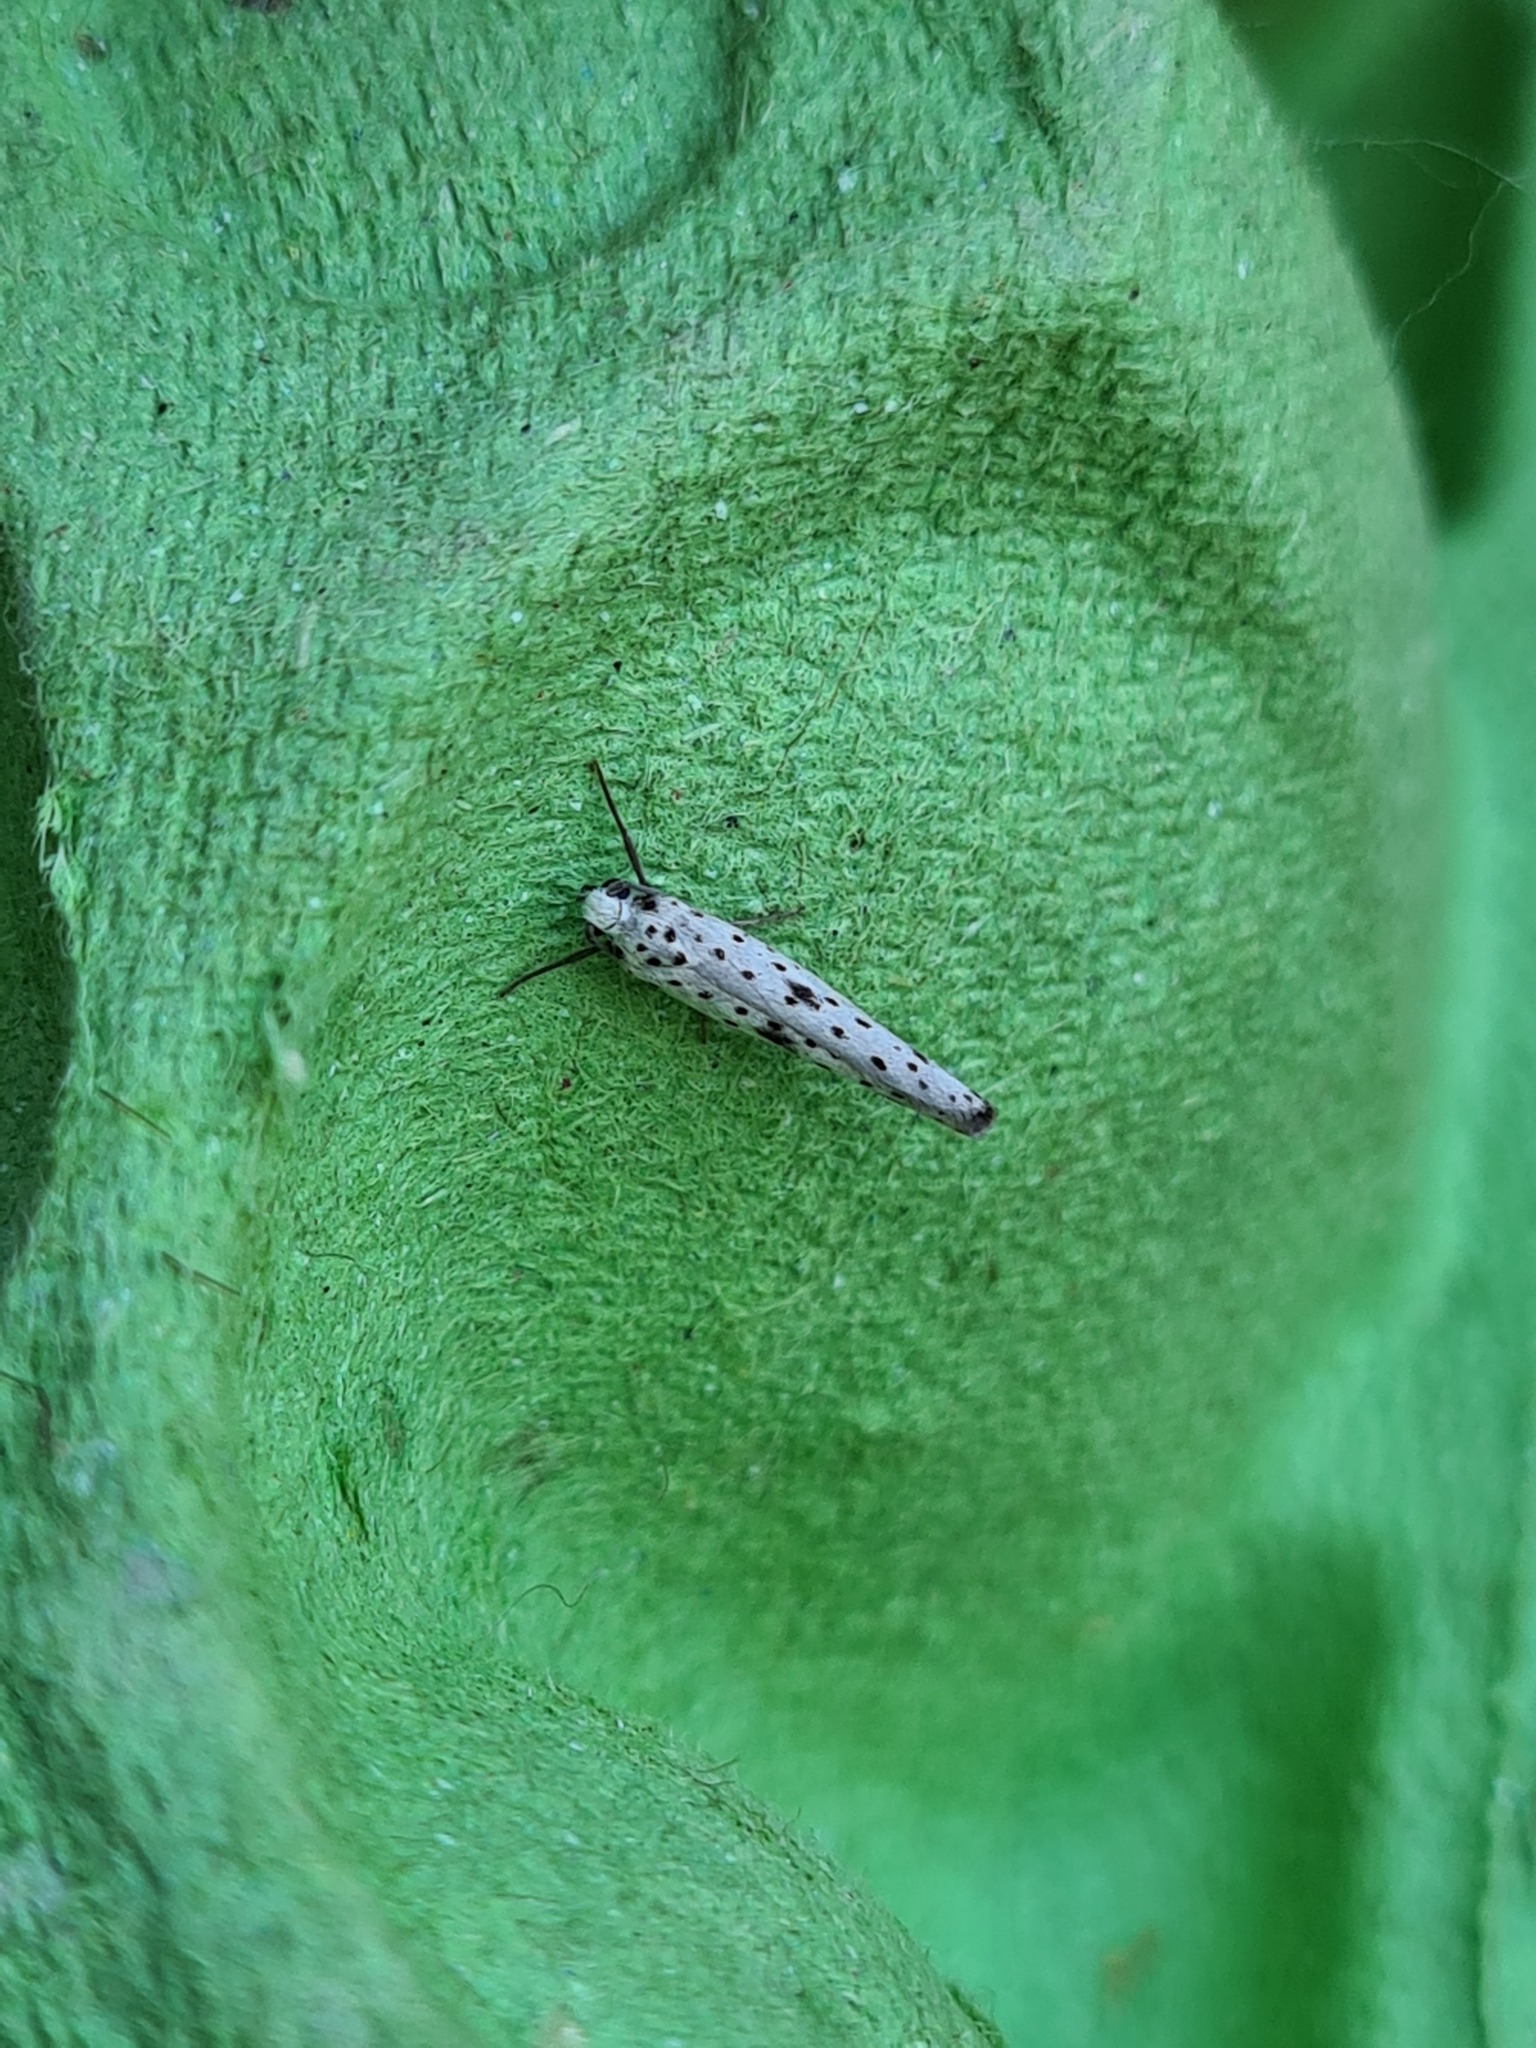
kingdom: Animalia
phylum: Arthropoda
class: Insecta
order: Lepidoptera
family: Yponomeutidae
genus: Yponomeuta
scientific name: Yponomeuta plumbella
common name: Black-tipped ermine
